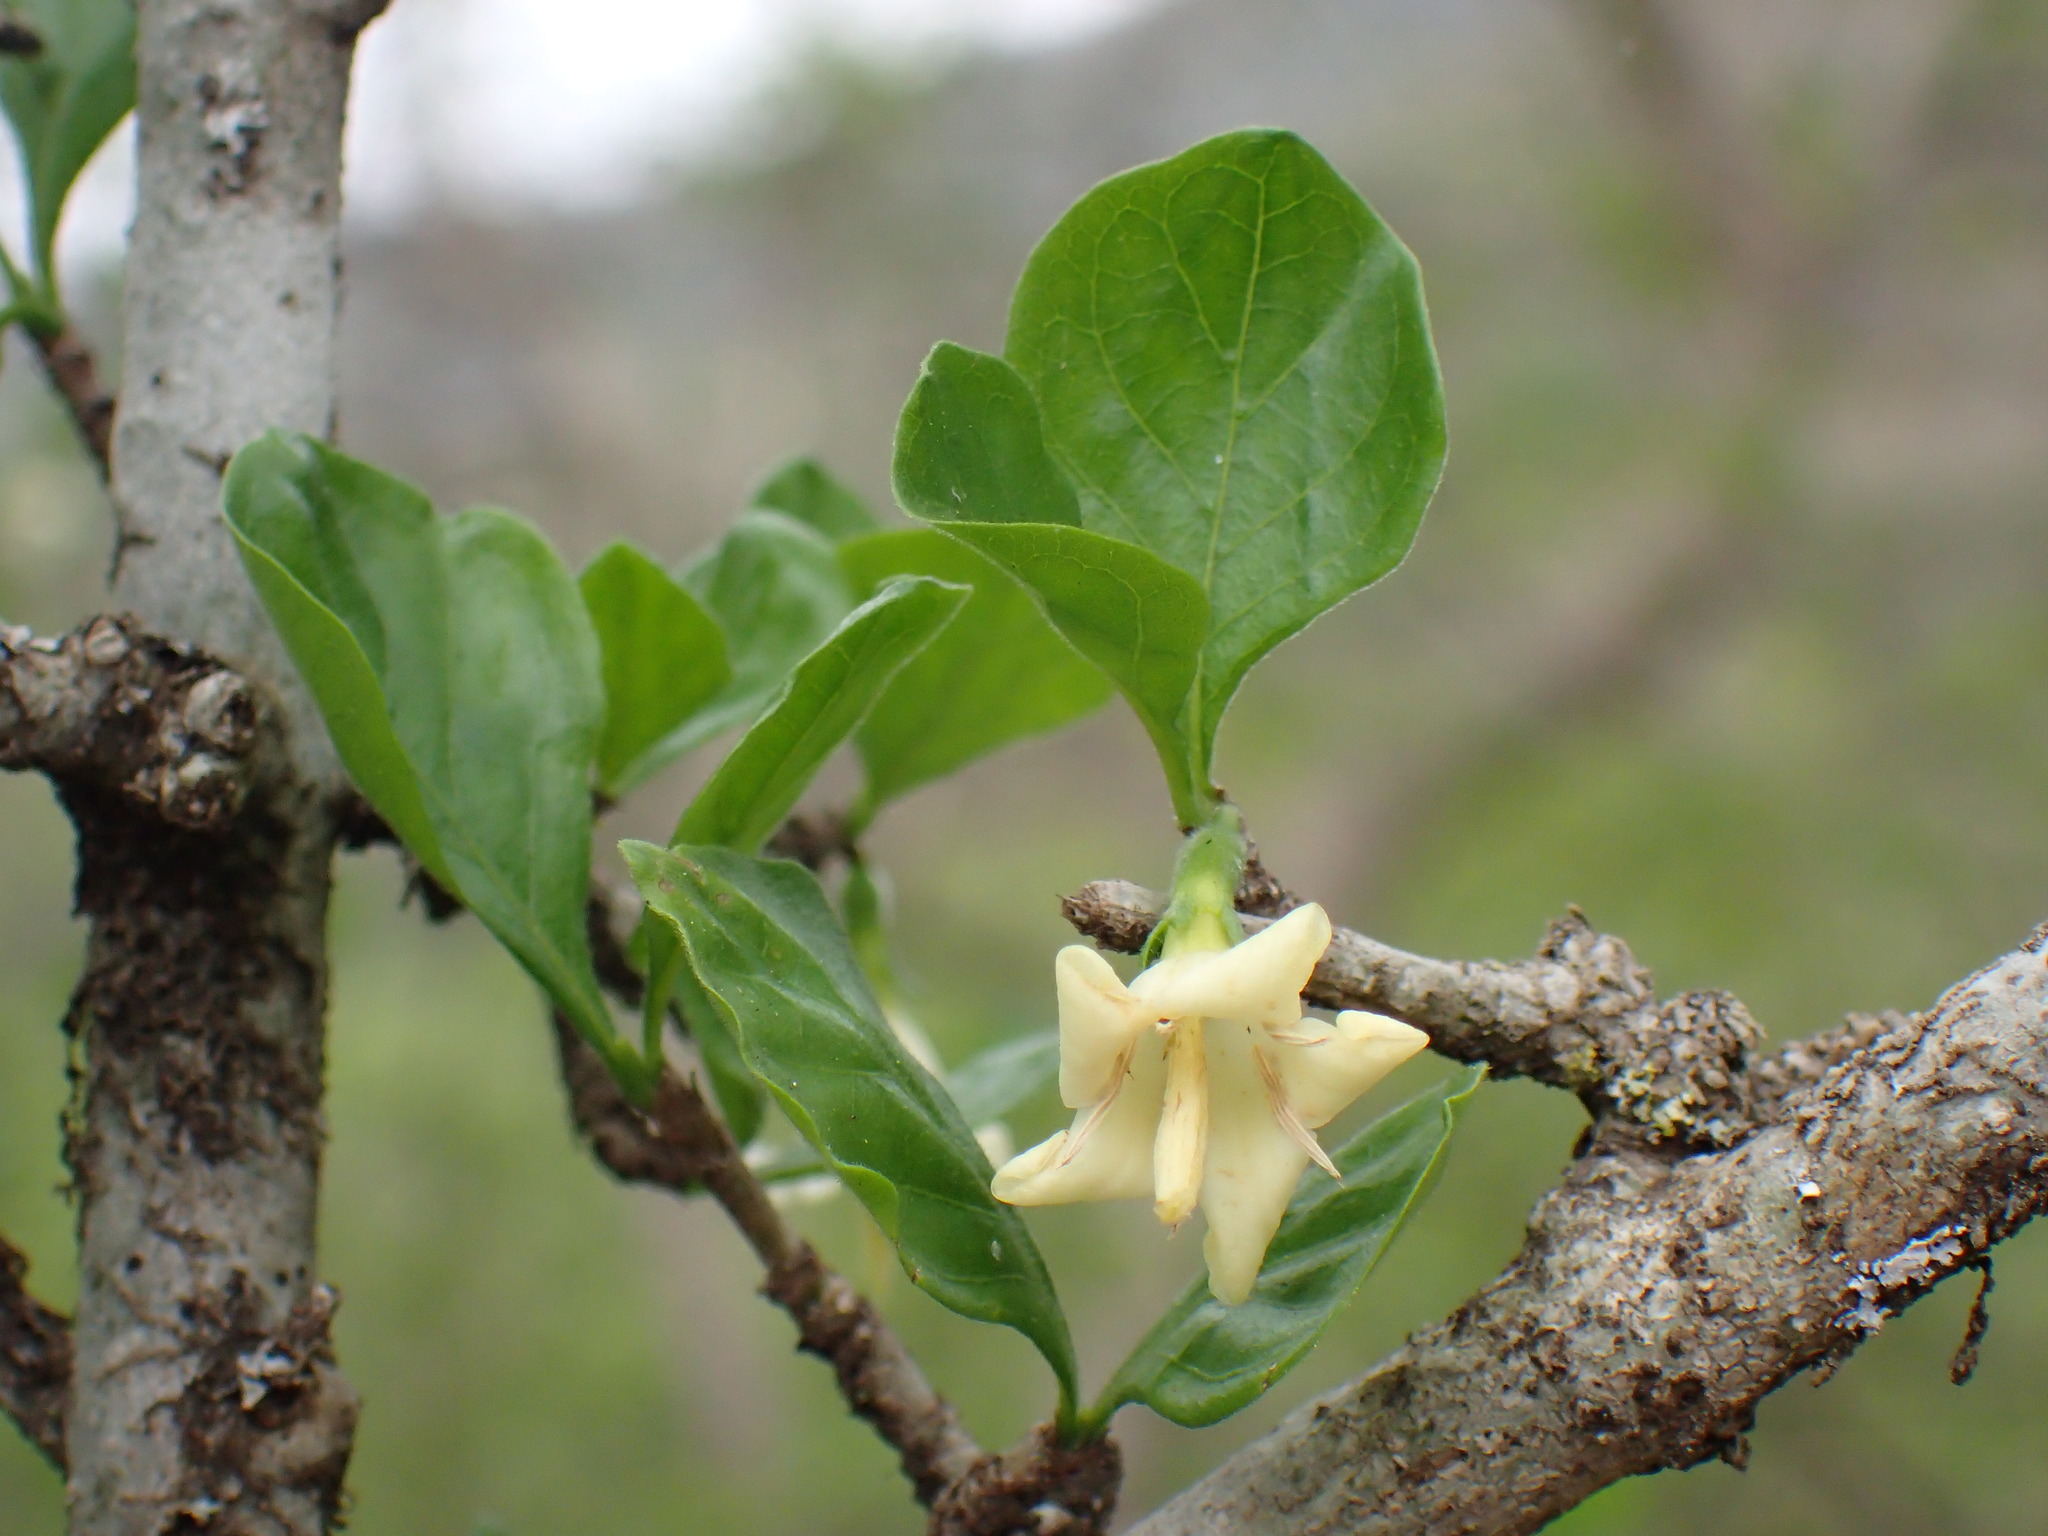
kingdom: Plantae
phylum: Tracheophyta
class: Magnoliopsida
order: Gentianales
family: Rubiaceae
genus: Coddia
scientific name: Coddia rudis
